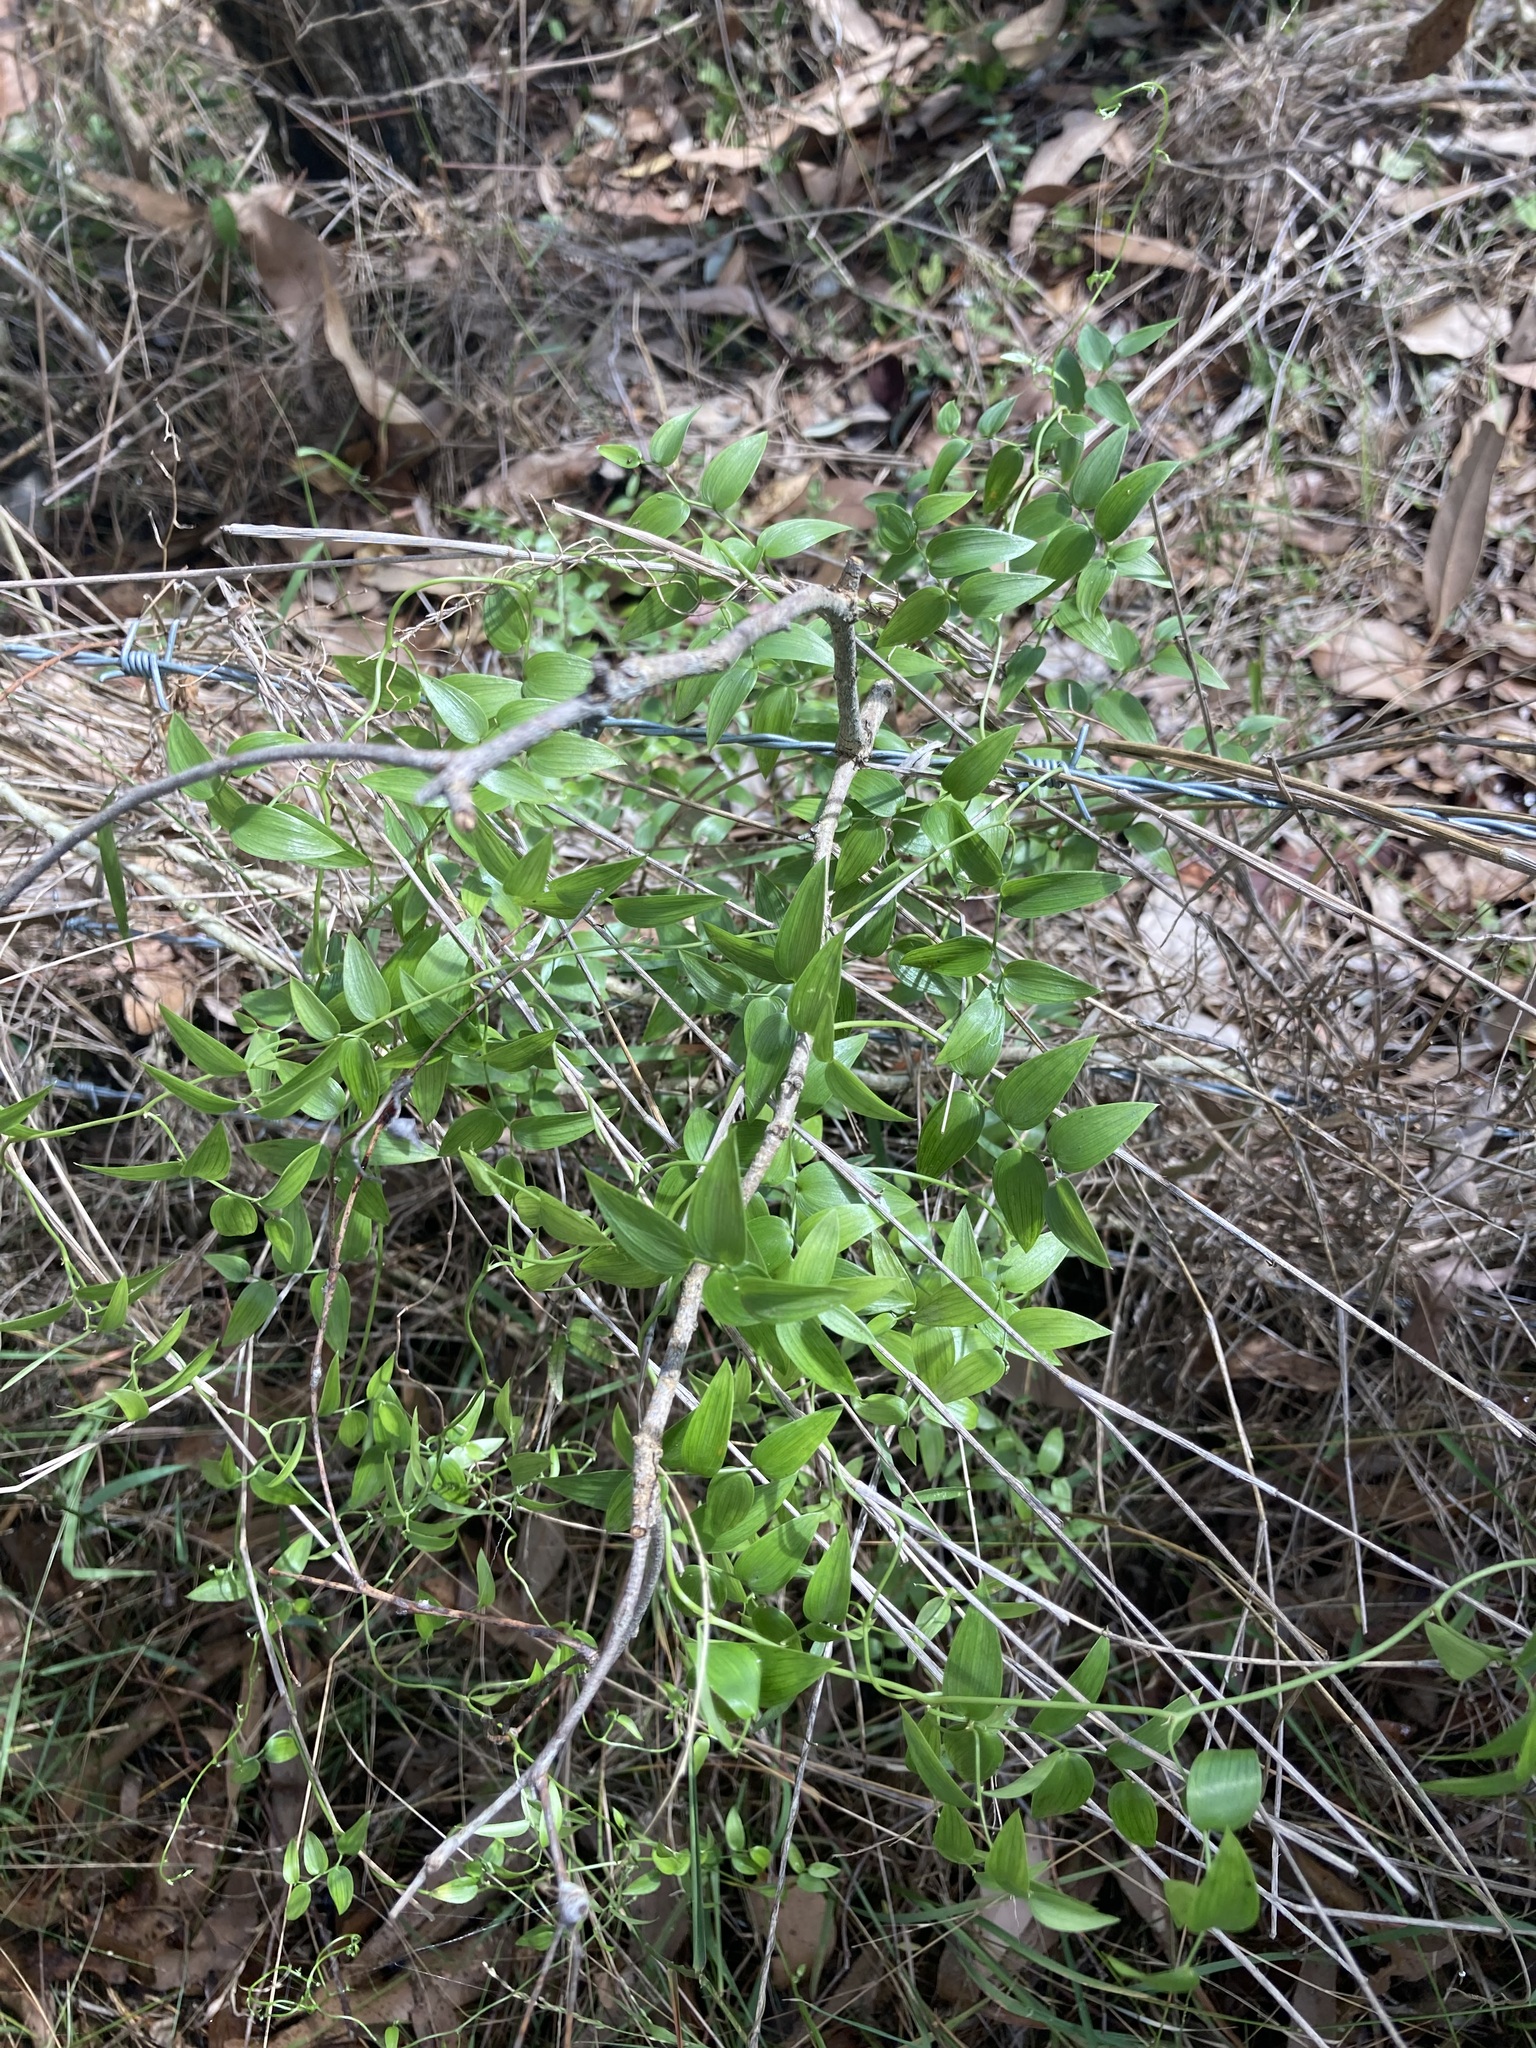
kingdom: Plantae
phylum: Tracheophyta
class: Liliopsida
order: Asparagales
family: Asparagaceae
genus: Asparagus
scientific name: Asparagus asparagoides
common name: African asparagus fern
